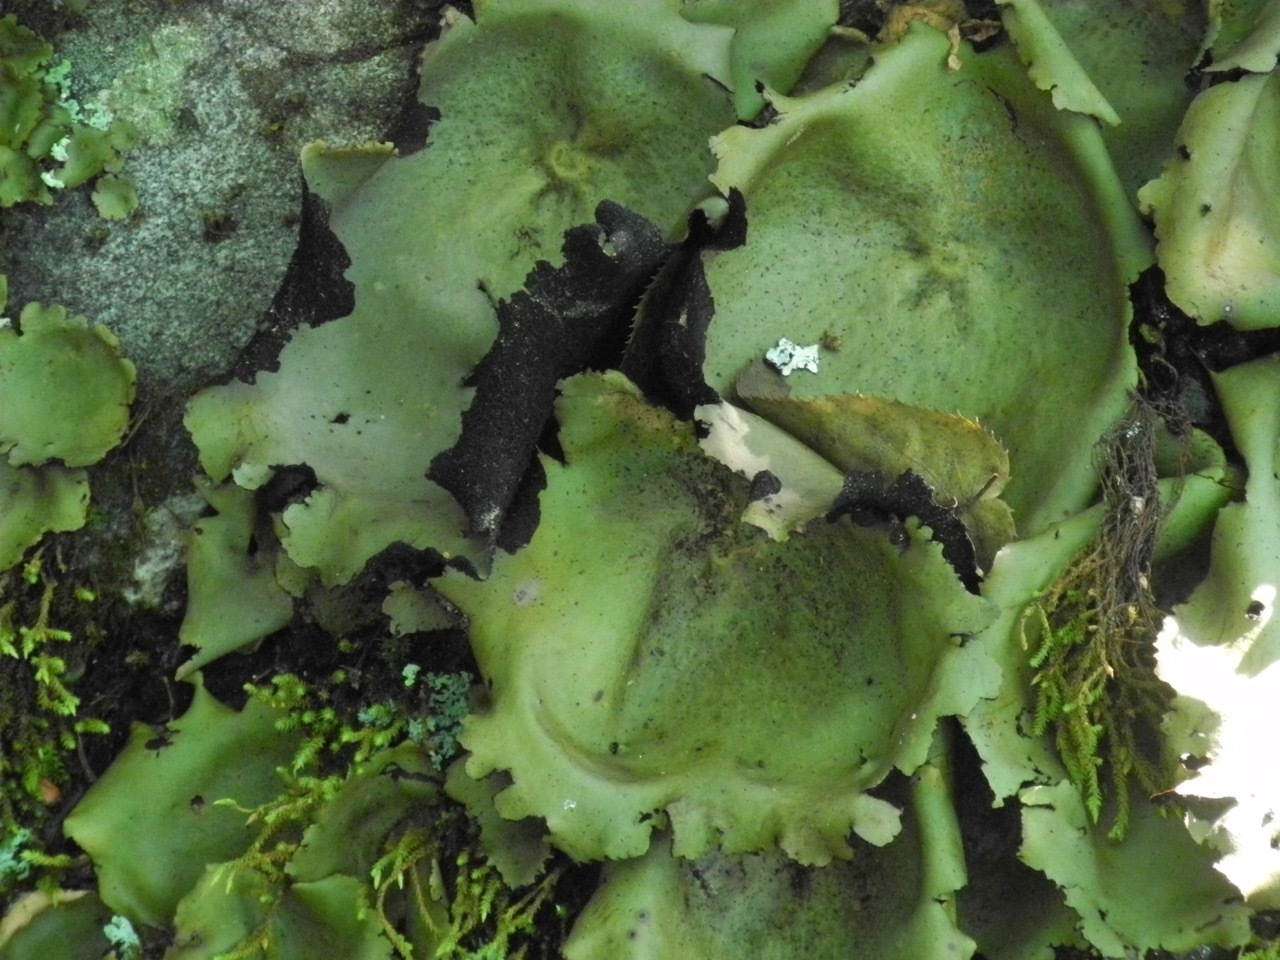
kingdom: Fungi
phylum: Ascomycota
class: Lecanoromycetes
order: Umbilicariales
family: Umbilicariaceae
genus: Umbilicaria
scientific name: Umbilicaria mammulata
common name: Smooth rock tripe
